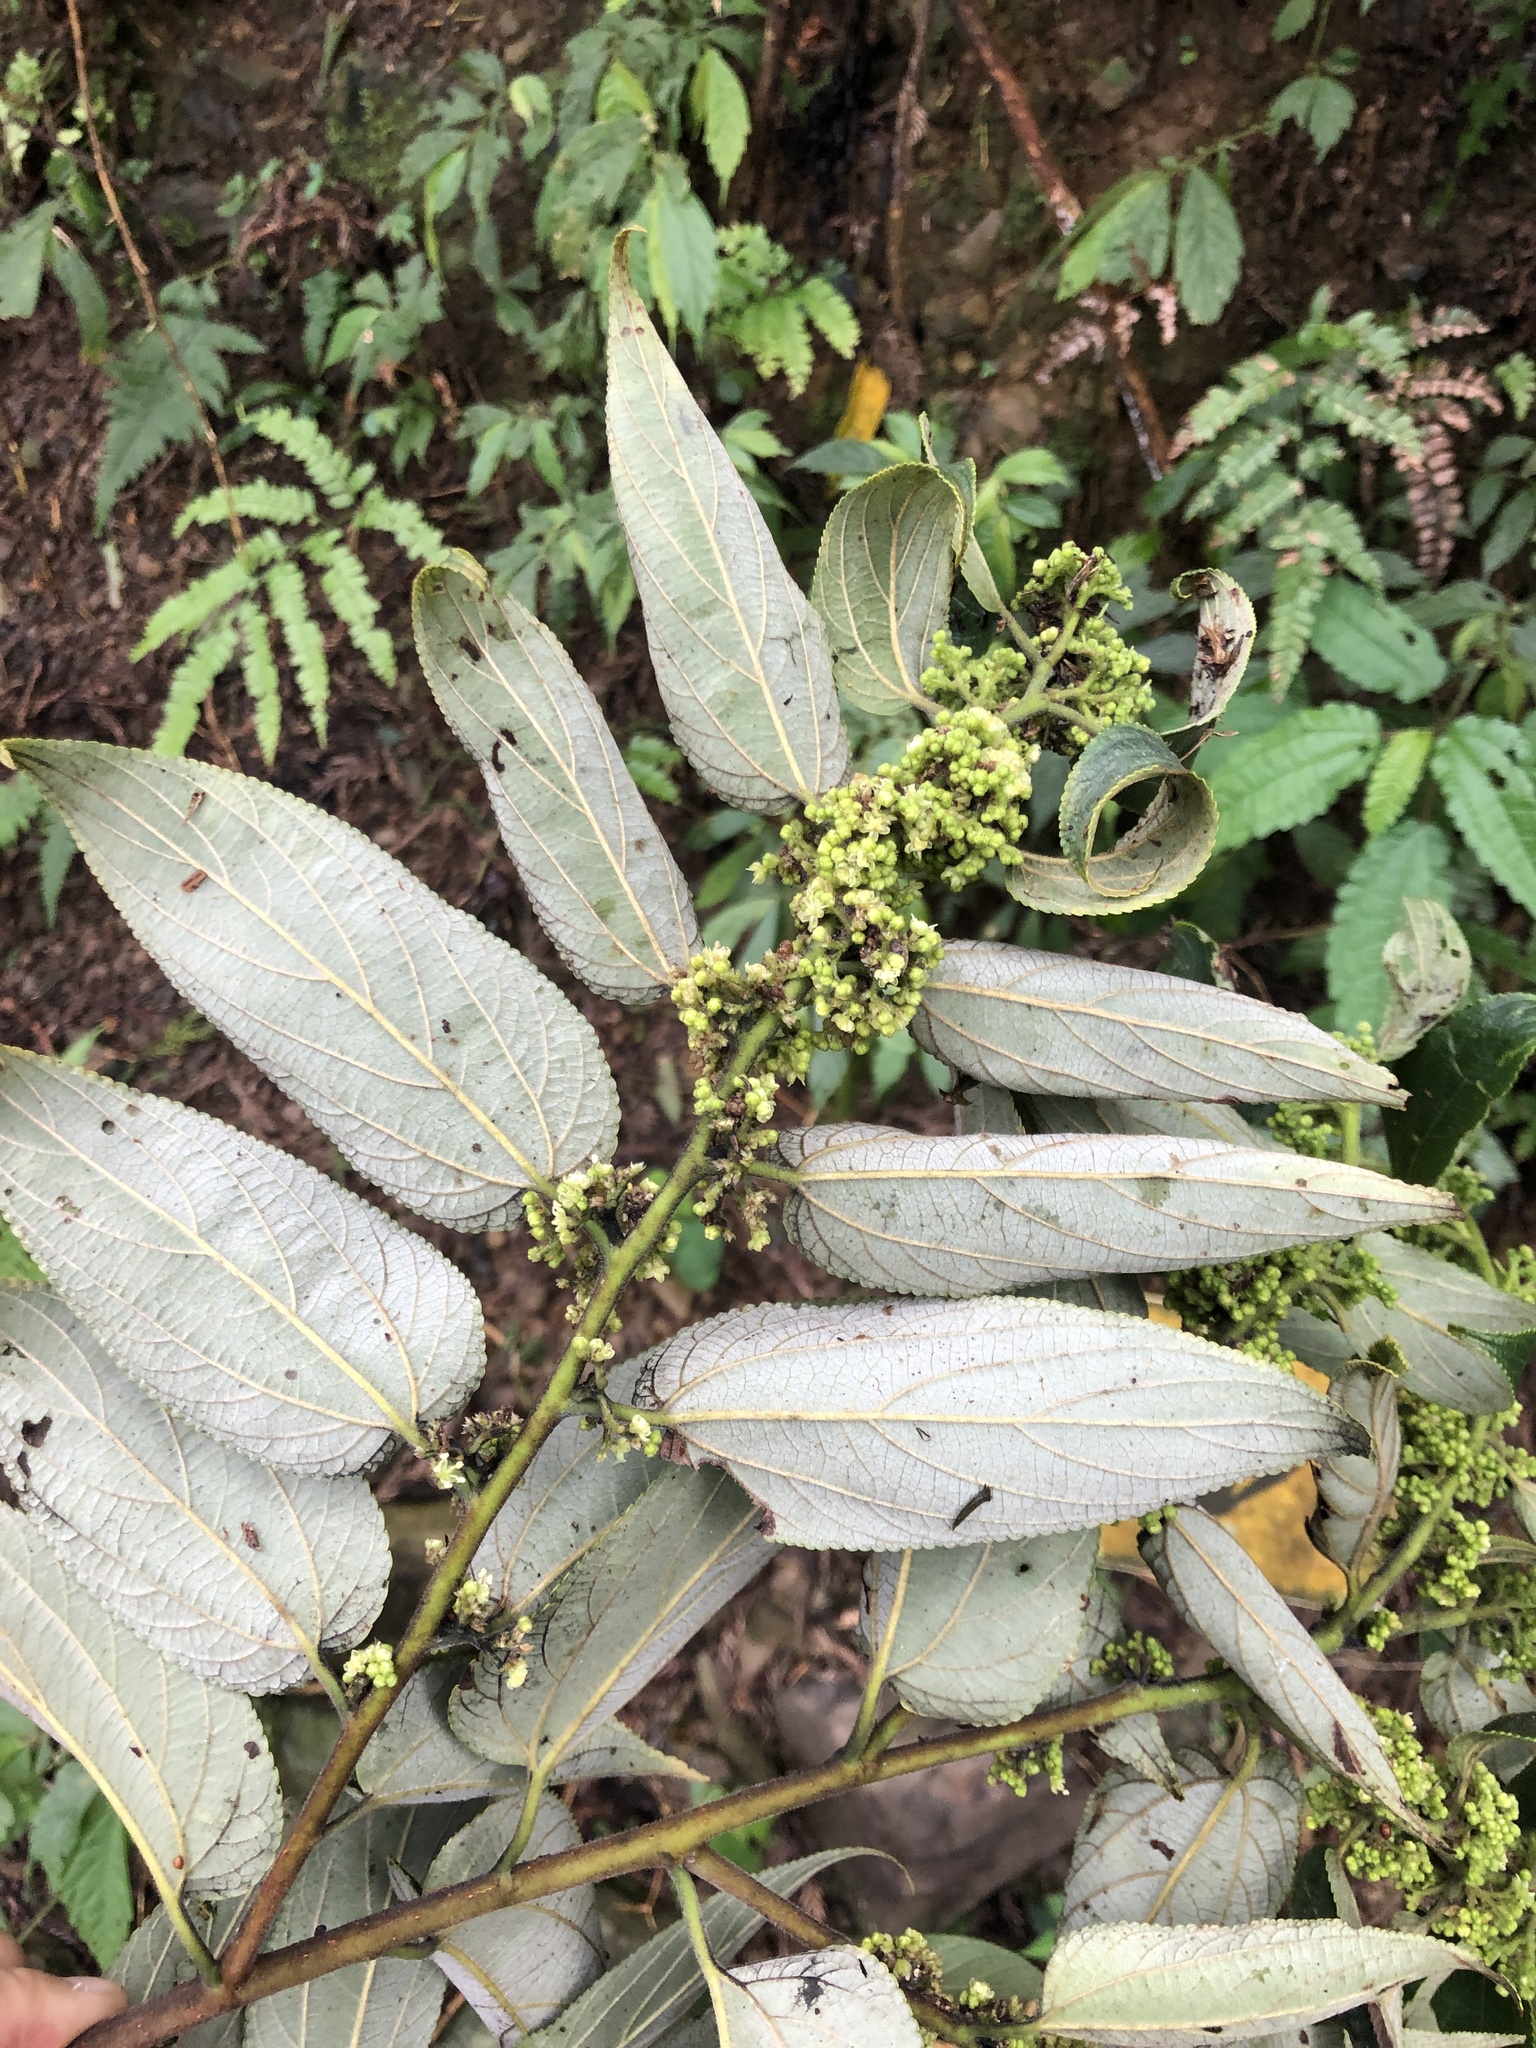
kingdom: Plantae
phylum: Tracheophyta
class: Magnoliopsida
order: Rosales
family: Cannabaceae
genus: Trema
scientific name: Trema orientale
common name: Indian charcoal tree
